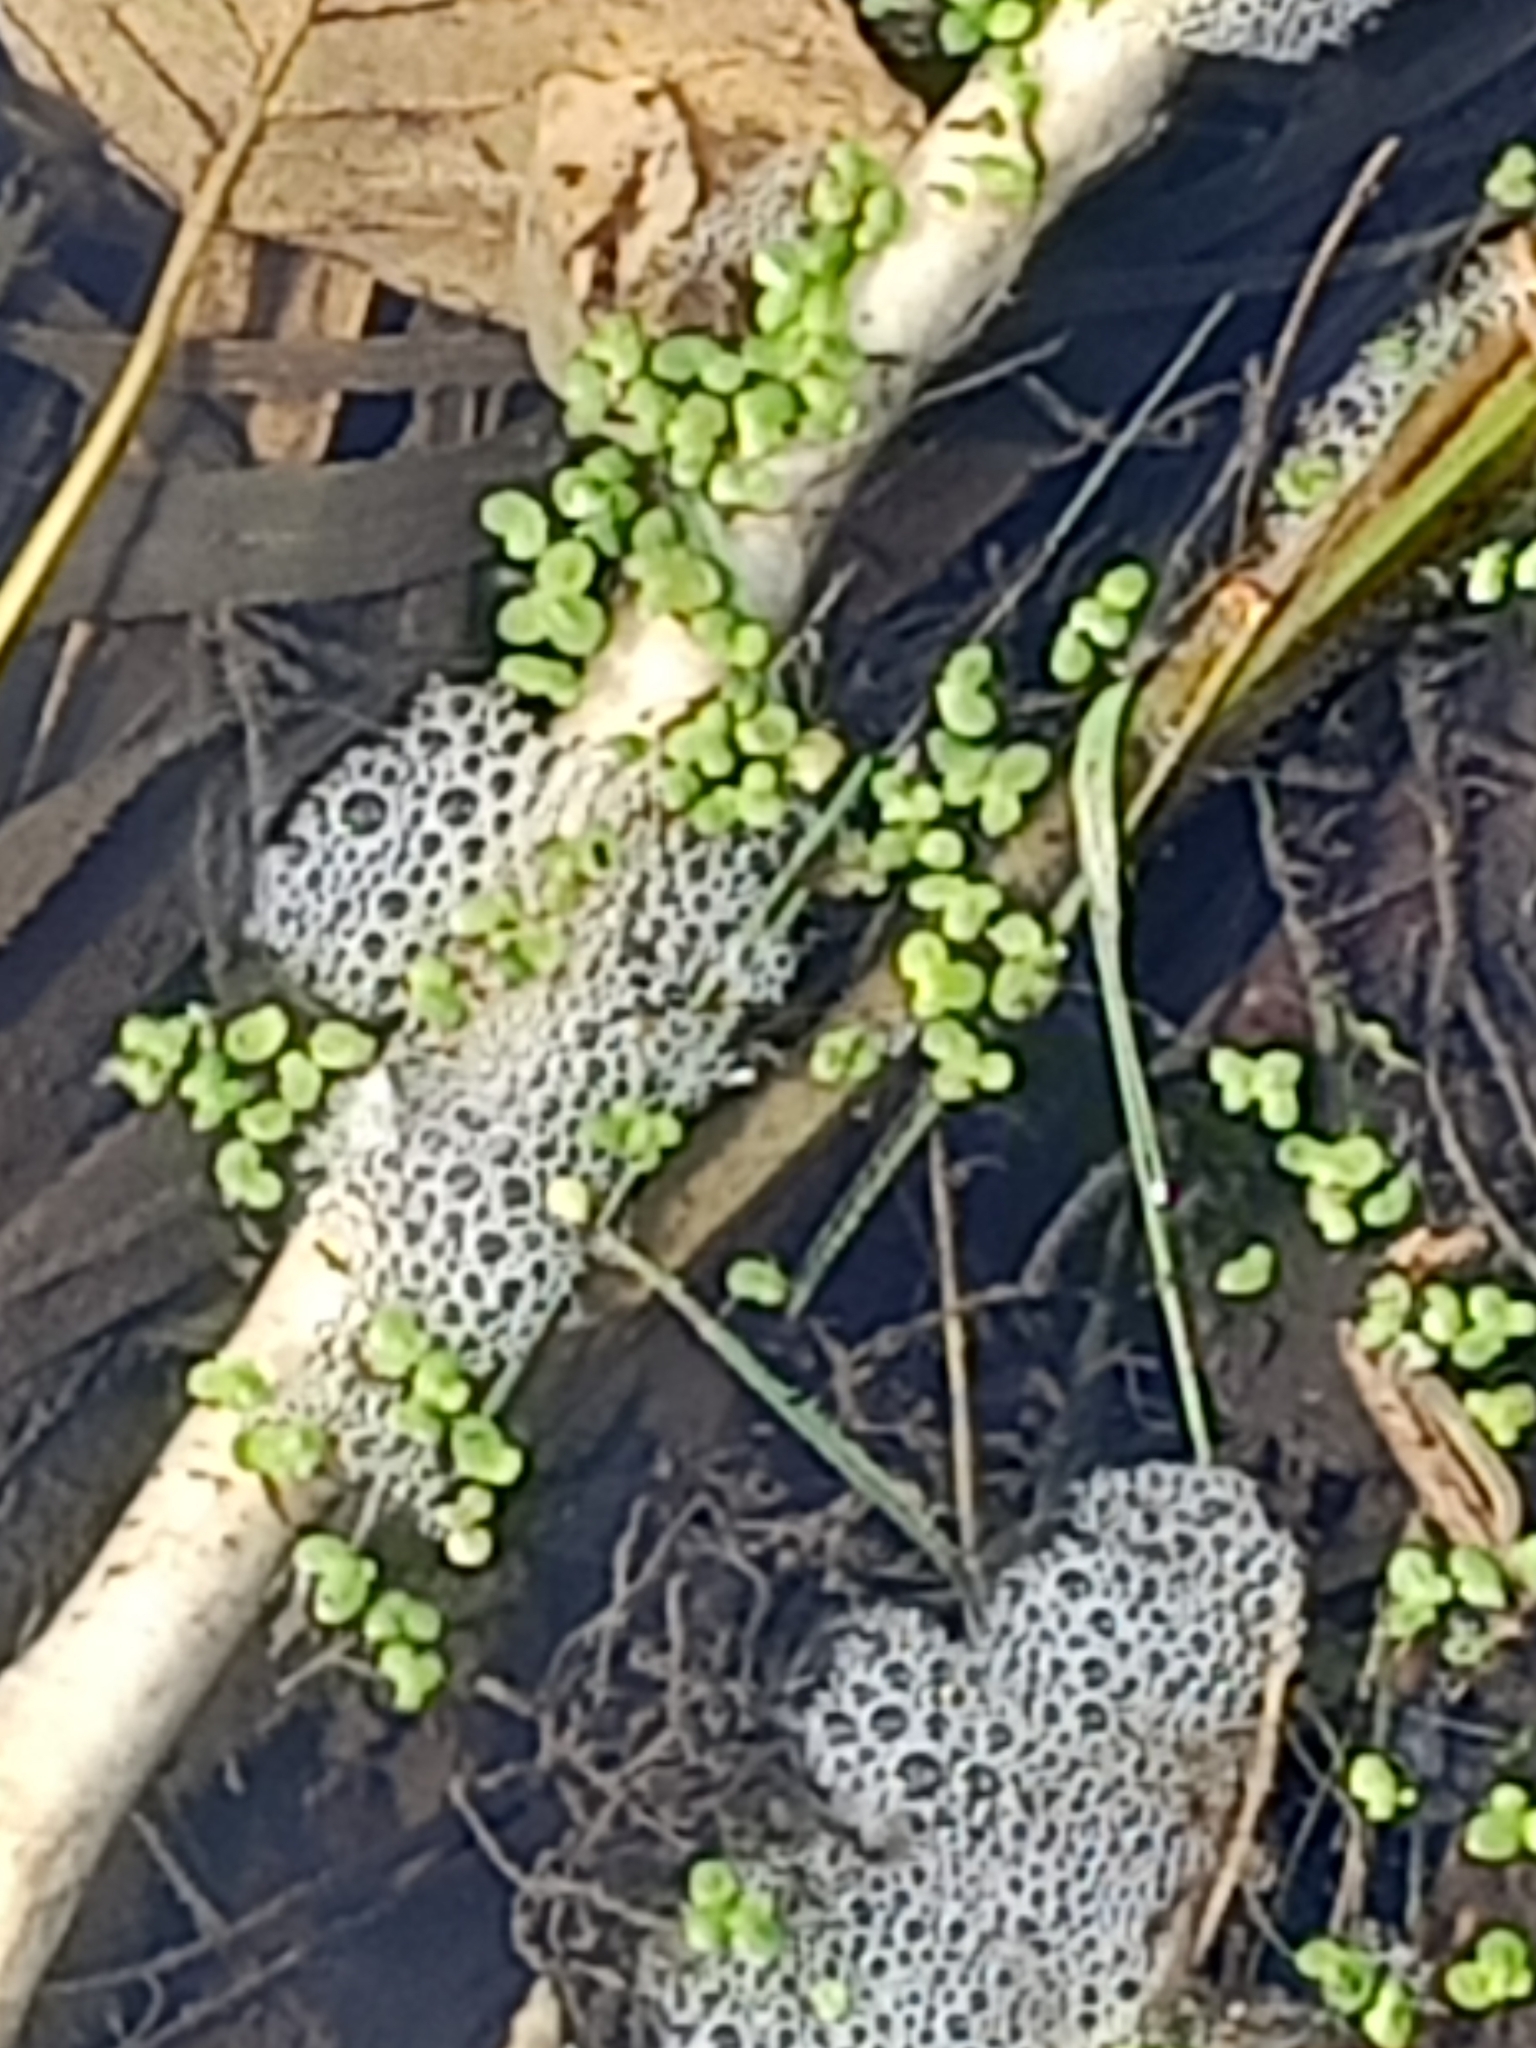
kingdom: Plantae
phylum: Tracheophyta
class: Liliopsida
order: Alismatales
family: Araceae
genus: Lemna
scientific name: Lemna minor
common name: Common duckweed
